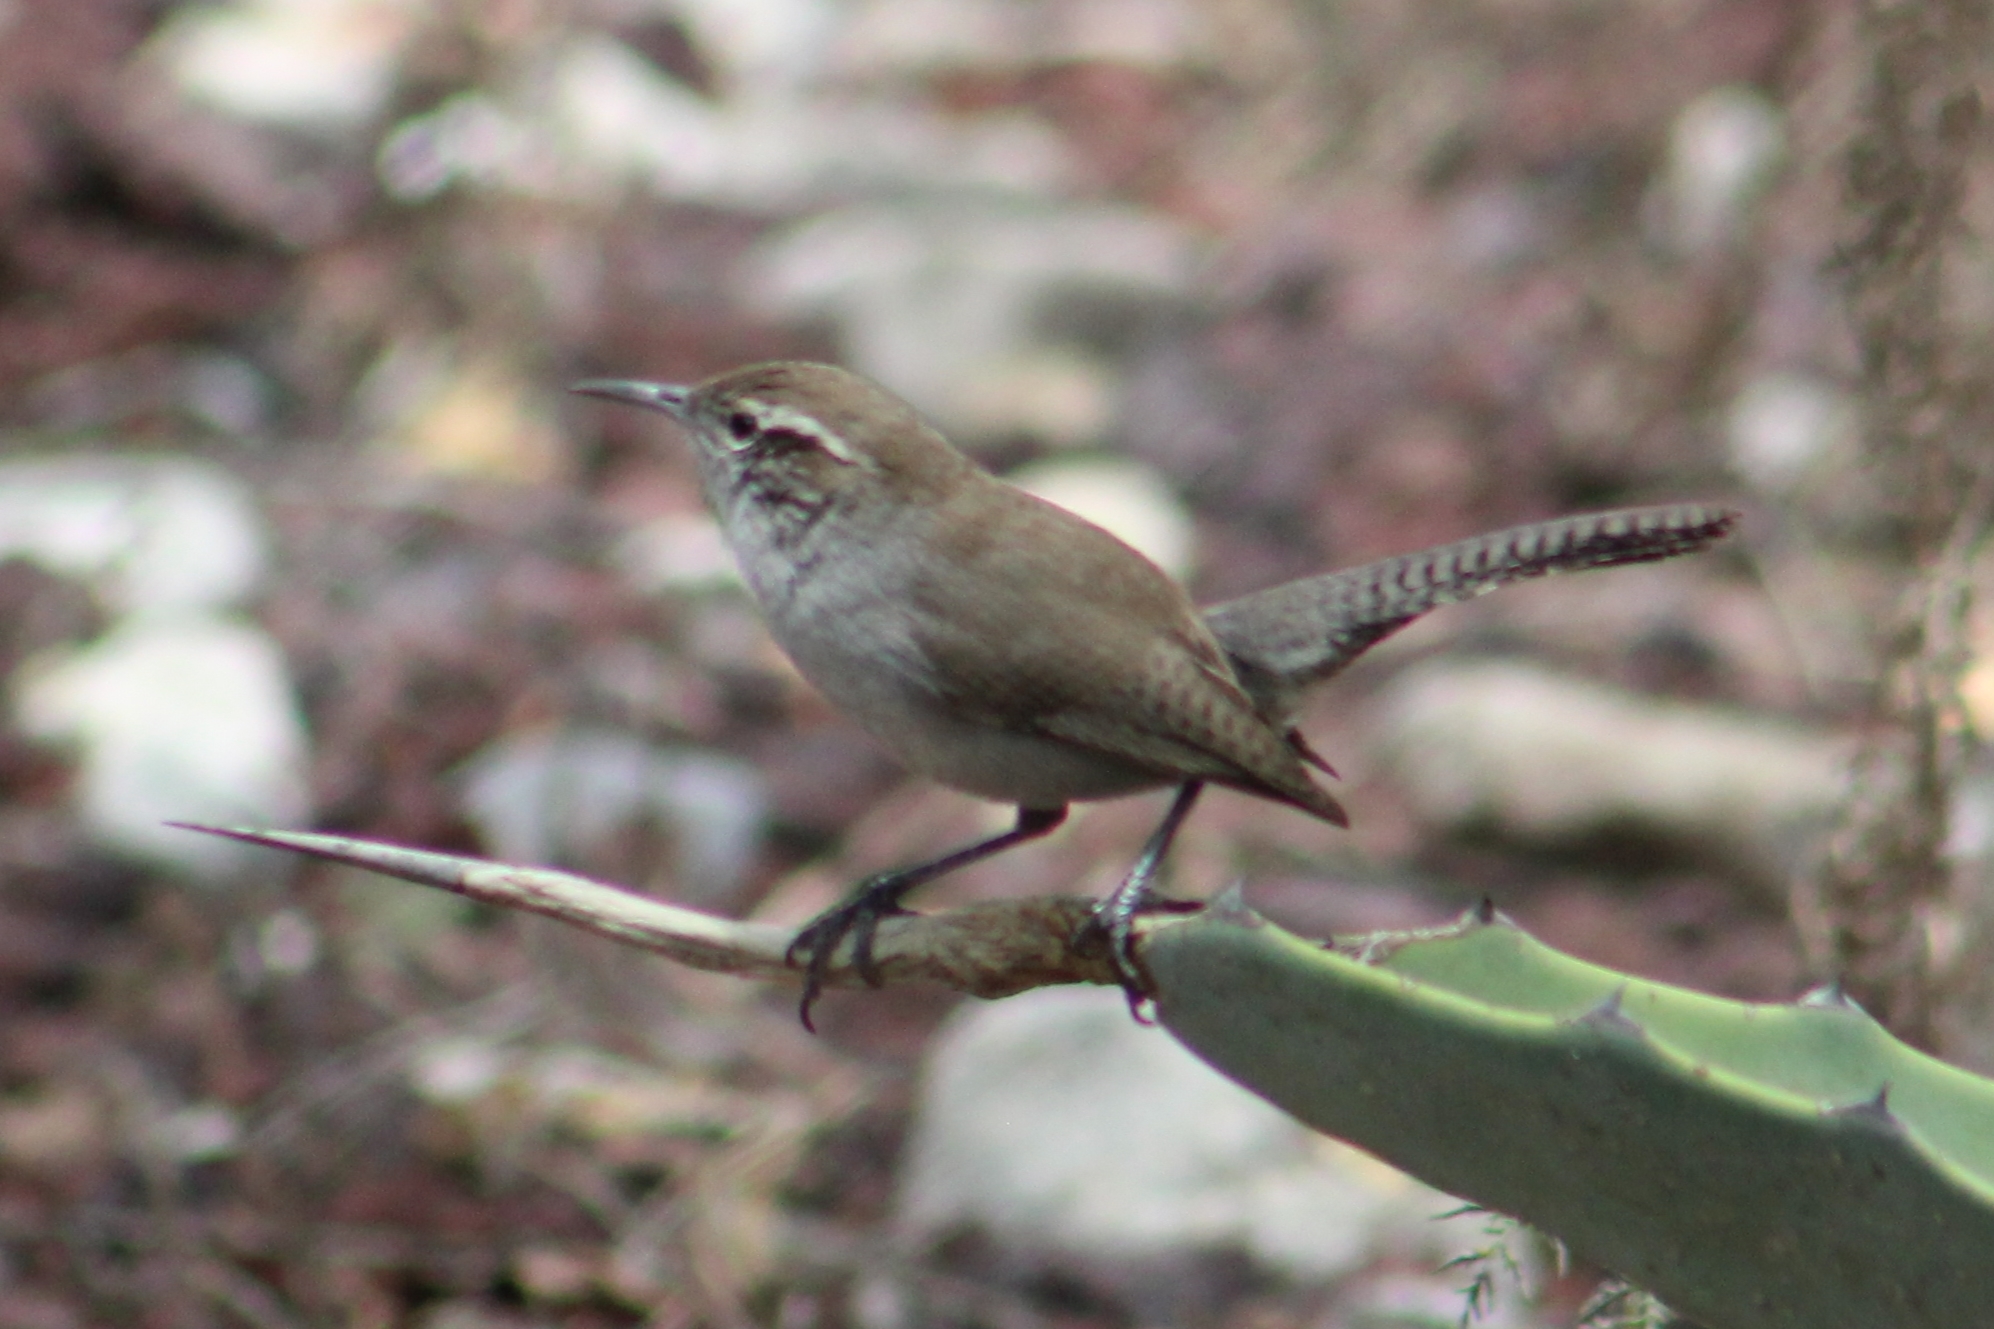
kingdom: Animalia
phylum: Chordata
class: Aves
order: Passeriformes
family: Troglodytidae
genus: Thryomanes
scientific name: Thryomanes bewickii
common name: Bewick's wren
